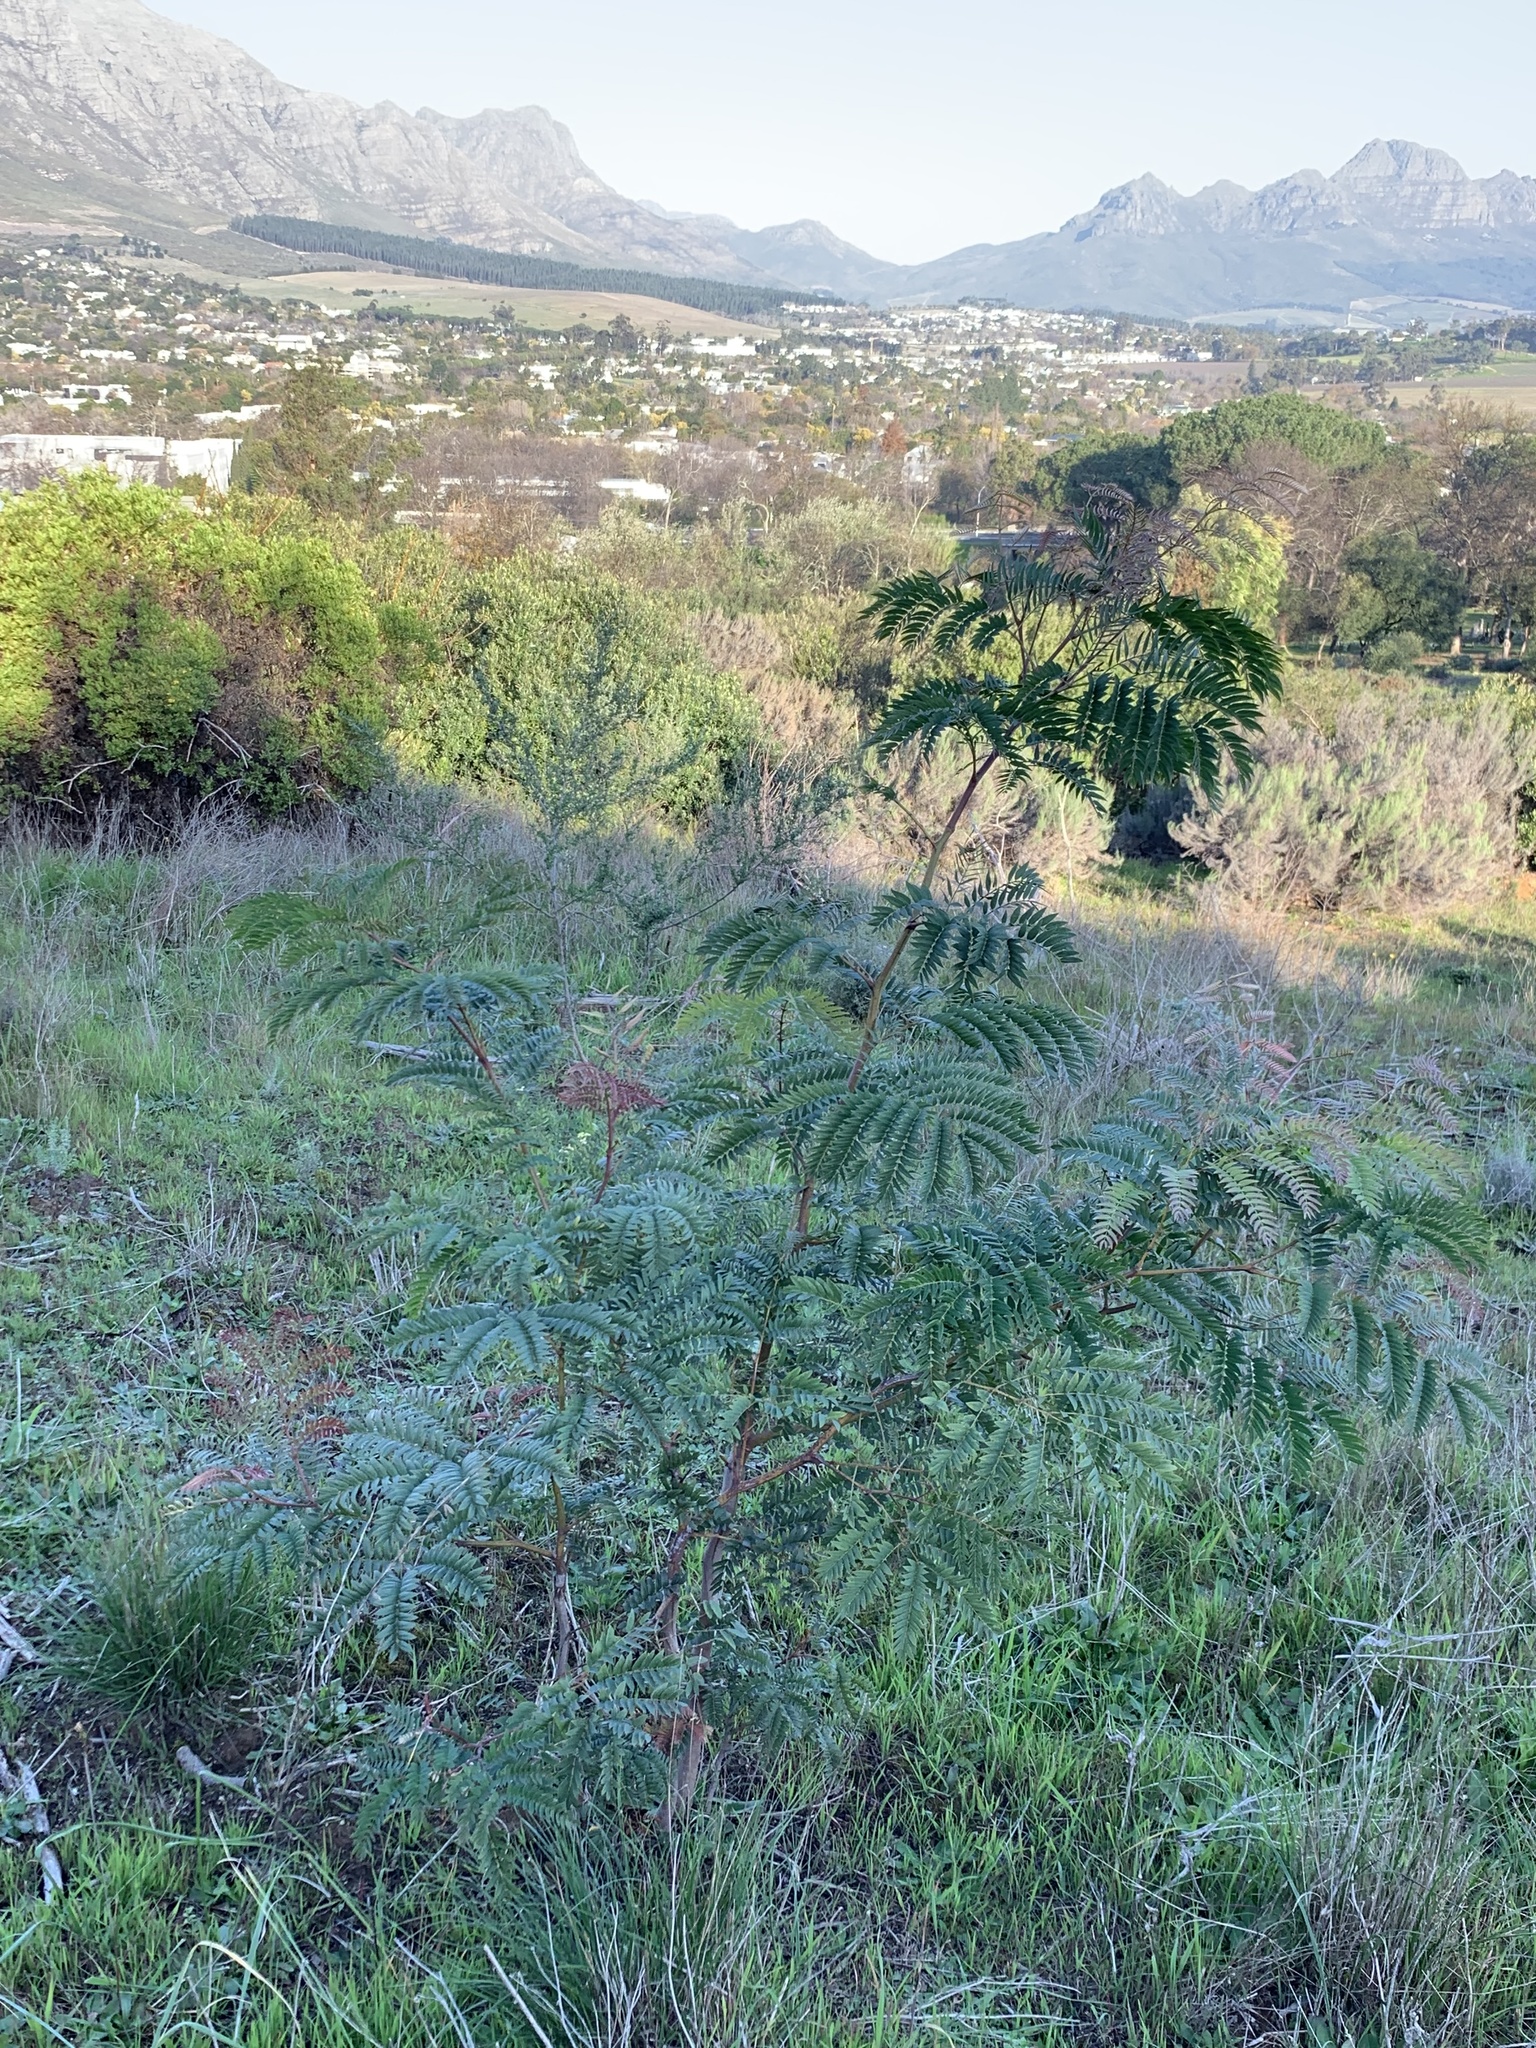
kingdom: Plantae
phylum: Tracheophyta
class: Magnoliopsida
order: Fabales
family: Fabaceae
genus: Acacia
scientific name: Acacia elata
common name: Cedar wattle
